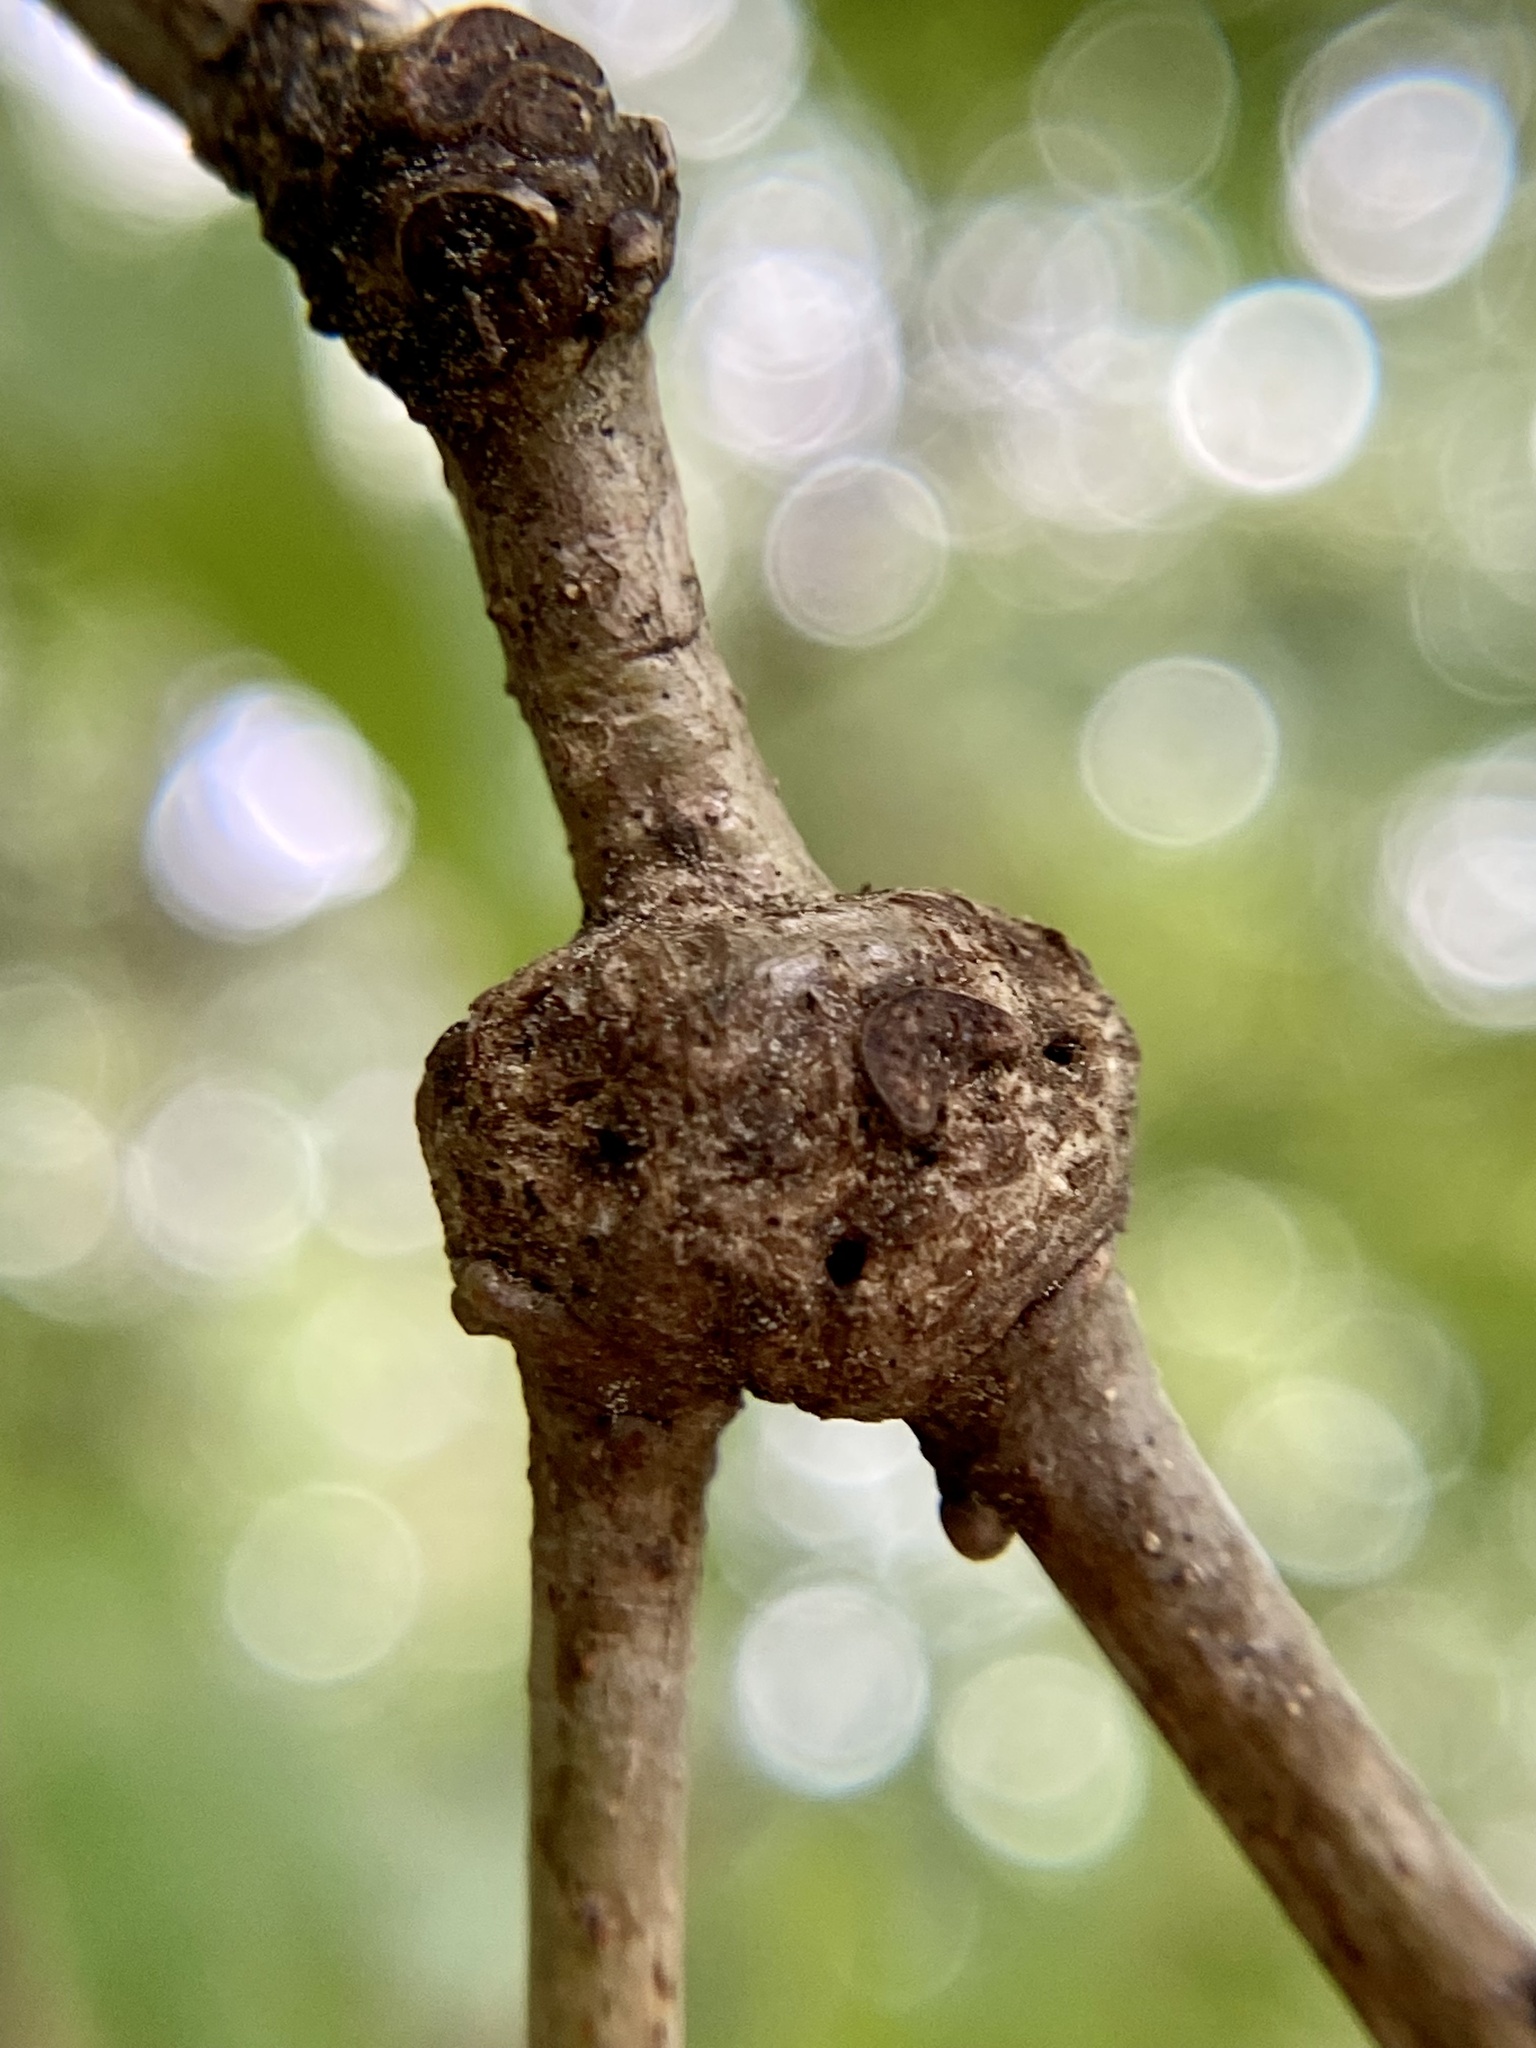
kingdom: Animalia
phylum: Arthropoda
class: Insecta
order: Hymenoptera
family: Cynipidae
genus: Loxaulus
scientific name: Loxaulus
